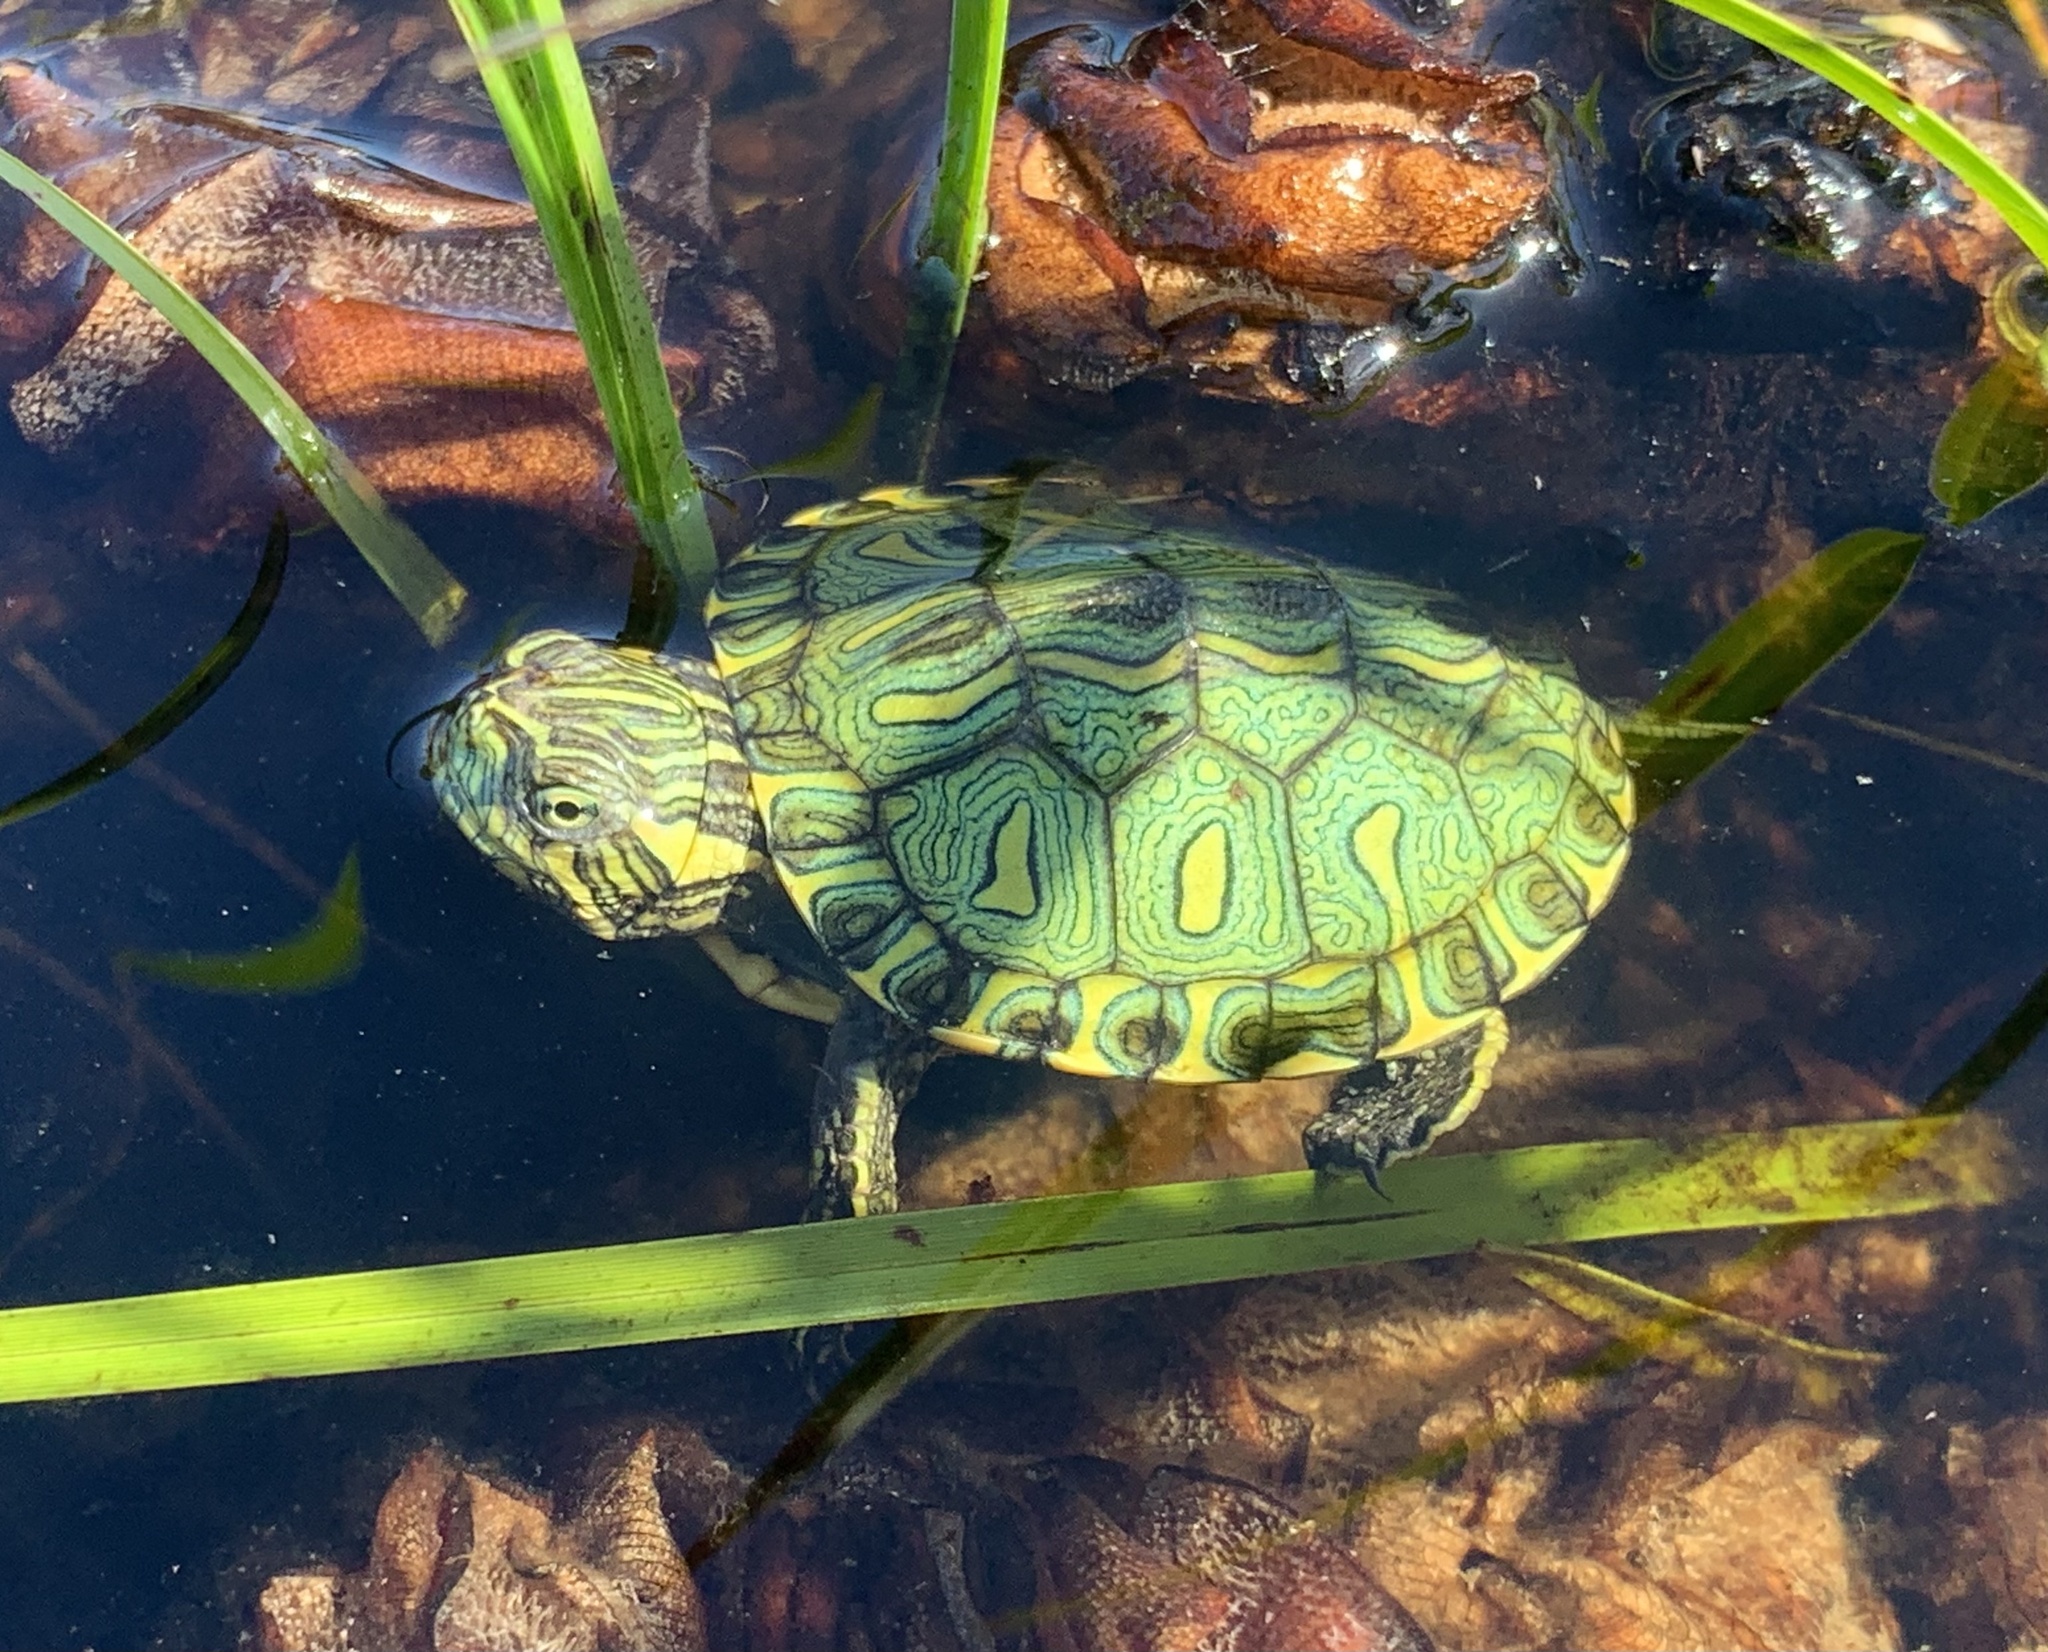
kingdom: Animalia
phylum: Chordata
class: Testudines
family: Emydidae
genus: Trachemys
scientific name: Trachemys dorbigni
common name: Black-bellied slider
